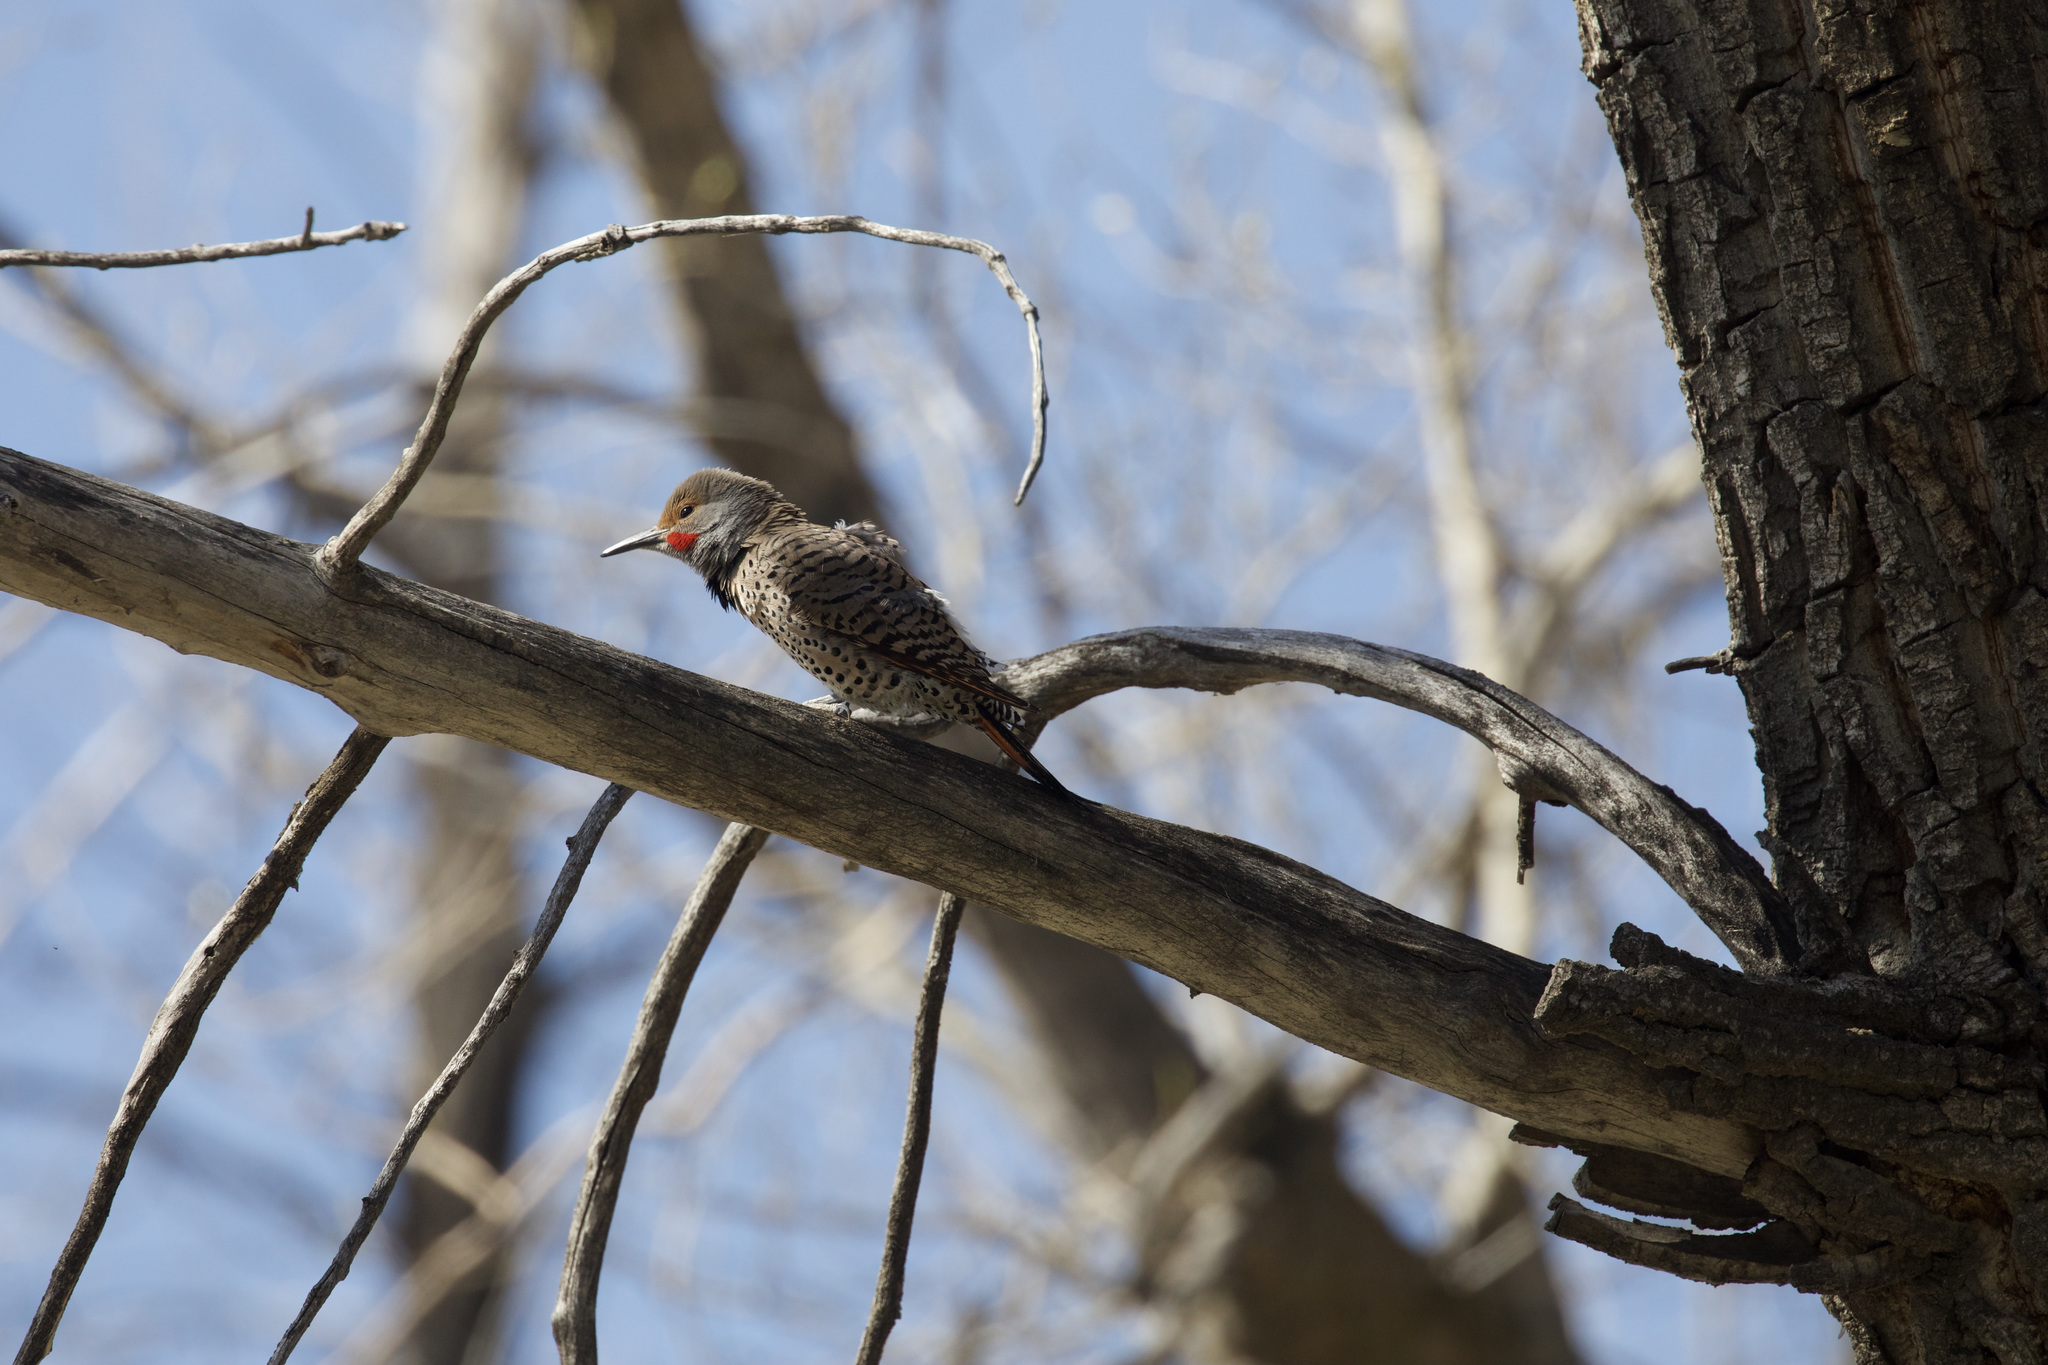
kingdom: Animalia
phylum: Chordata
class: Aves
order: Piciformes
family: Picidae
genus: Colaptes
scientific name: Colaptes auratus
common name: Northern flicker
